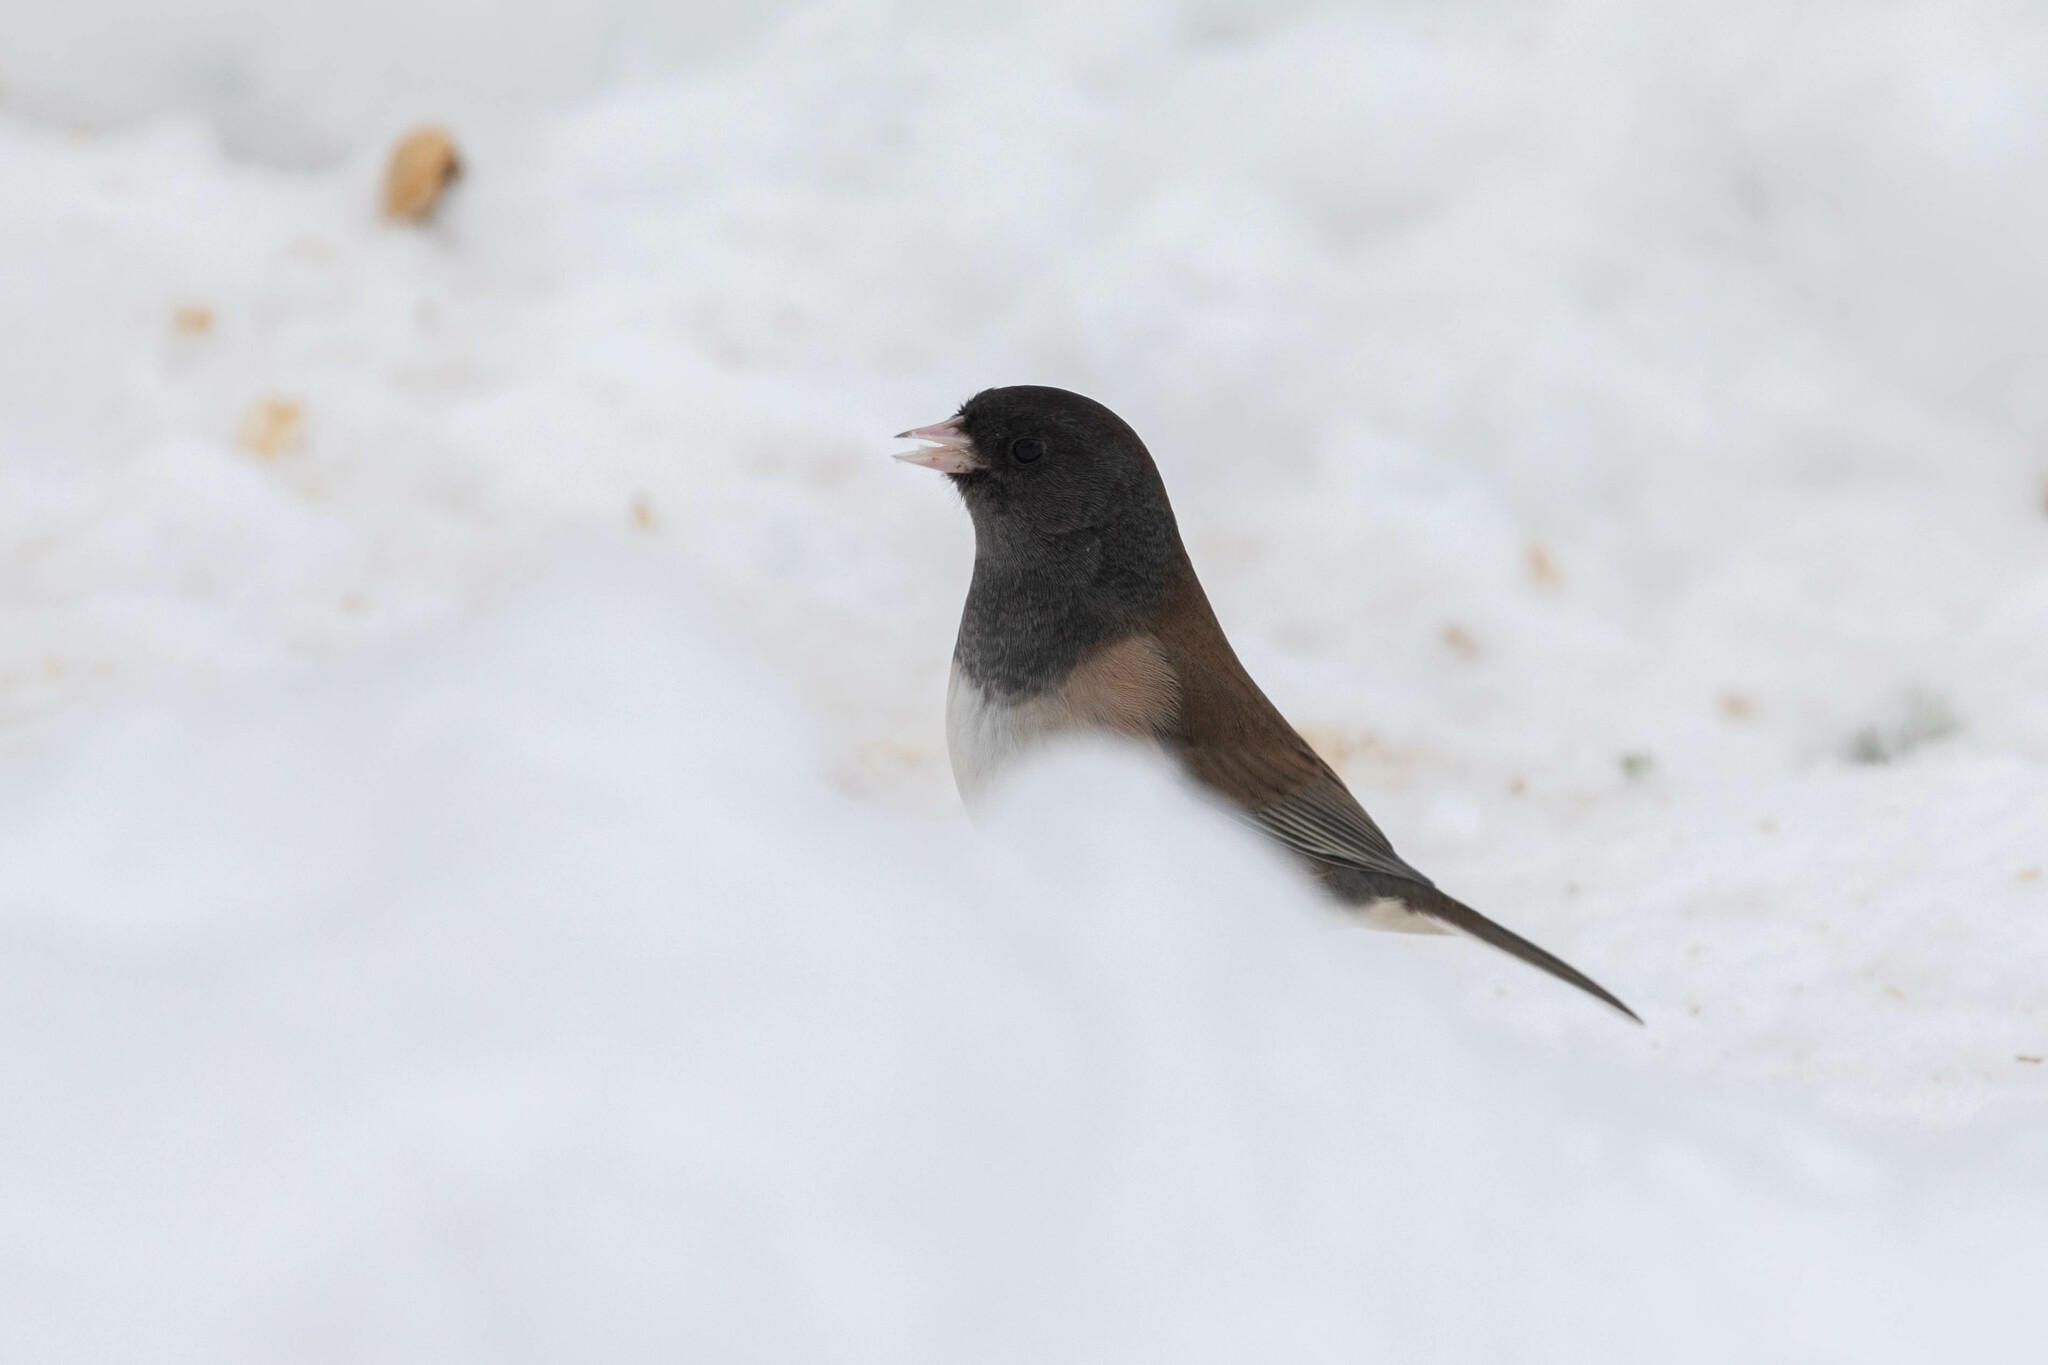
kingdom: Animalia
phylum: Chordata
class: Aves
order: Passeriformes
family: Passerellidae
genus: Junco
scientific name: Junco hyemalis
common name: Dark-eyed junco
